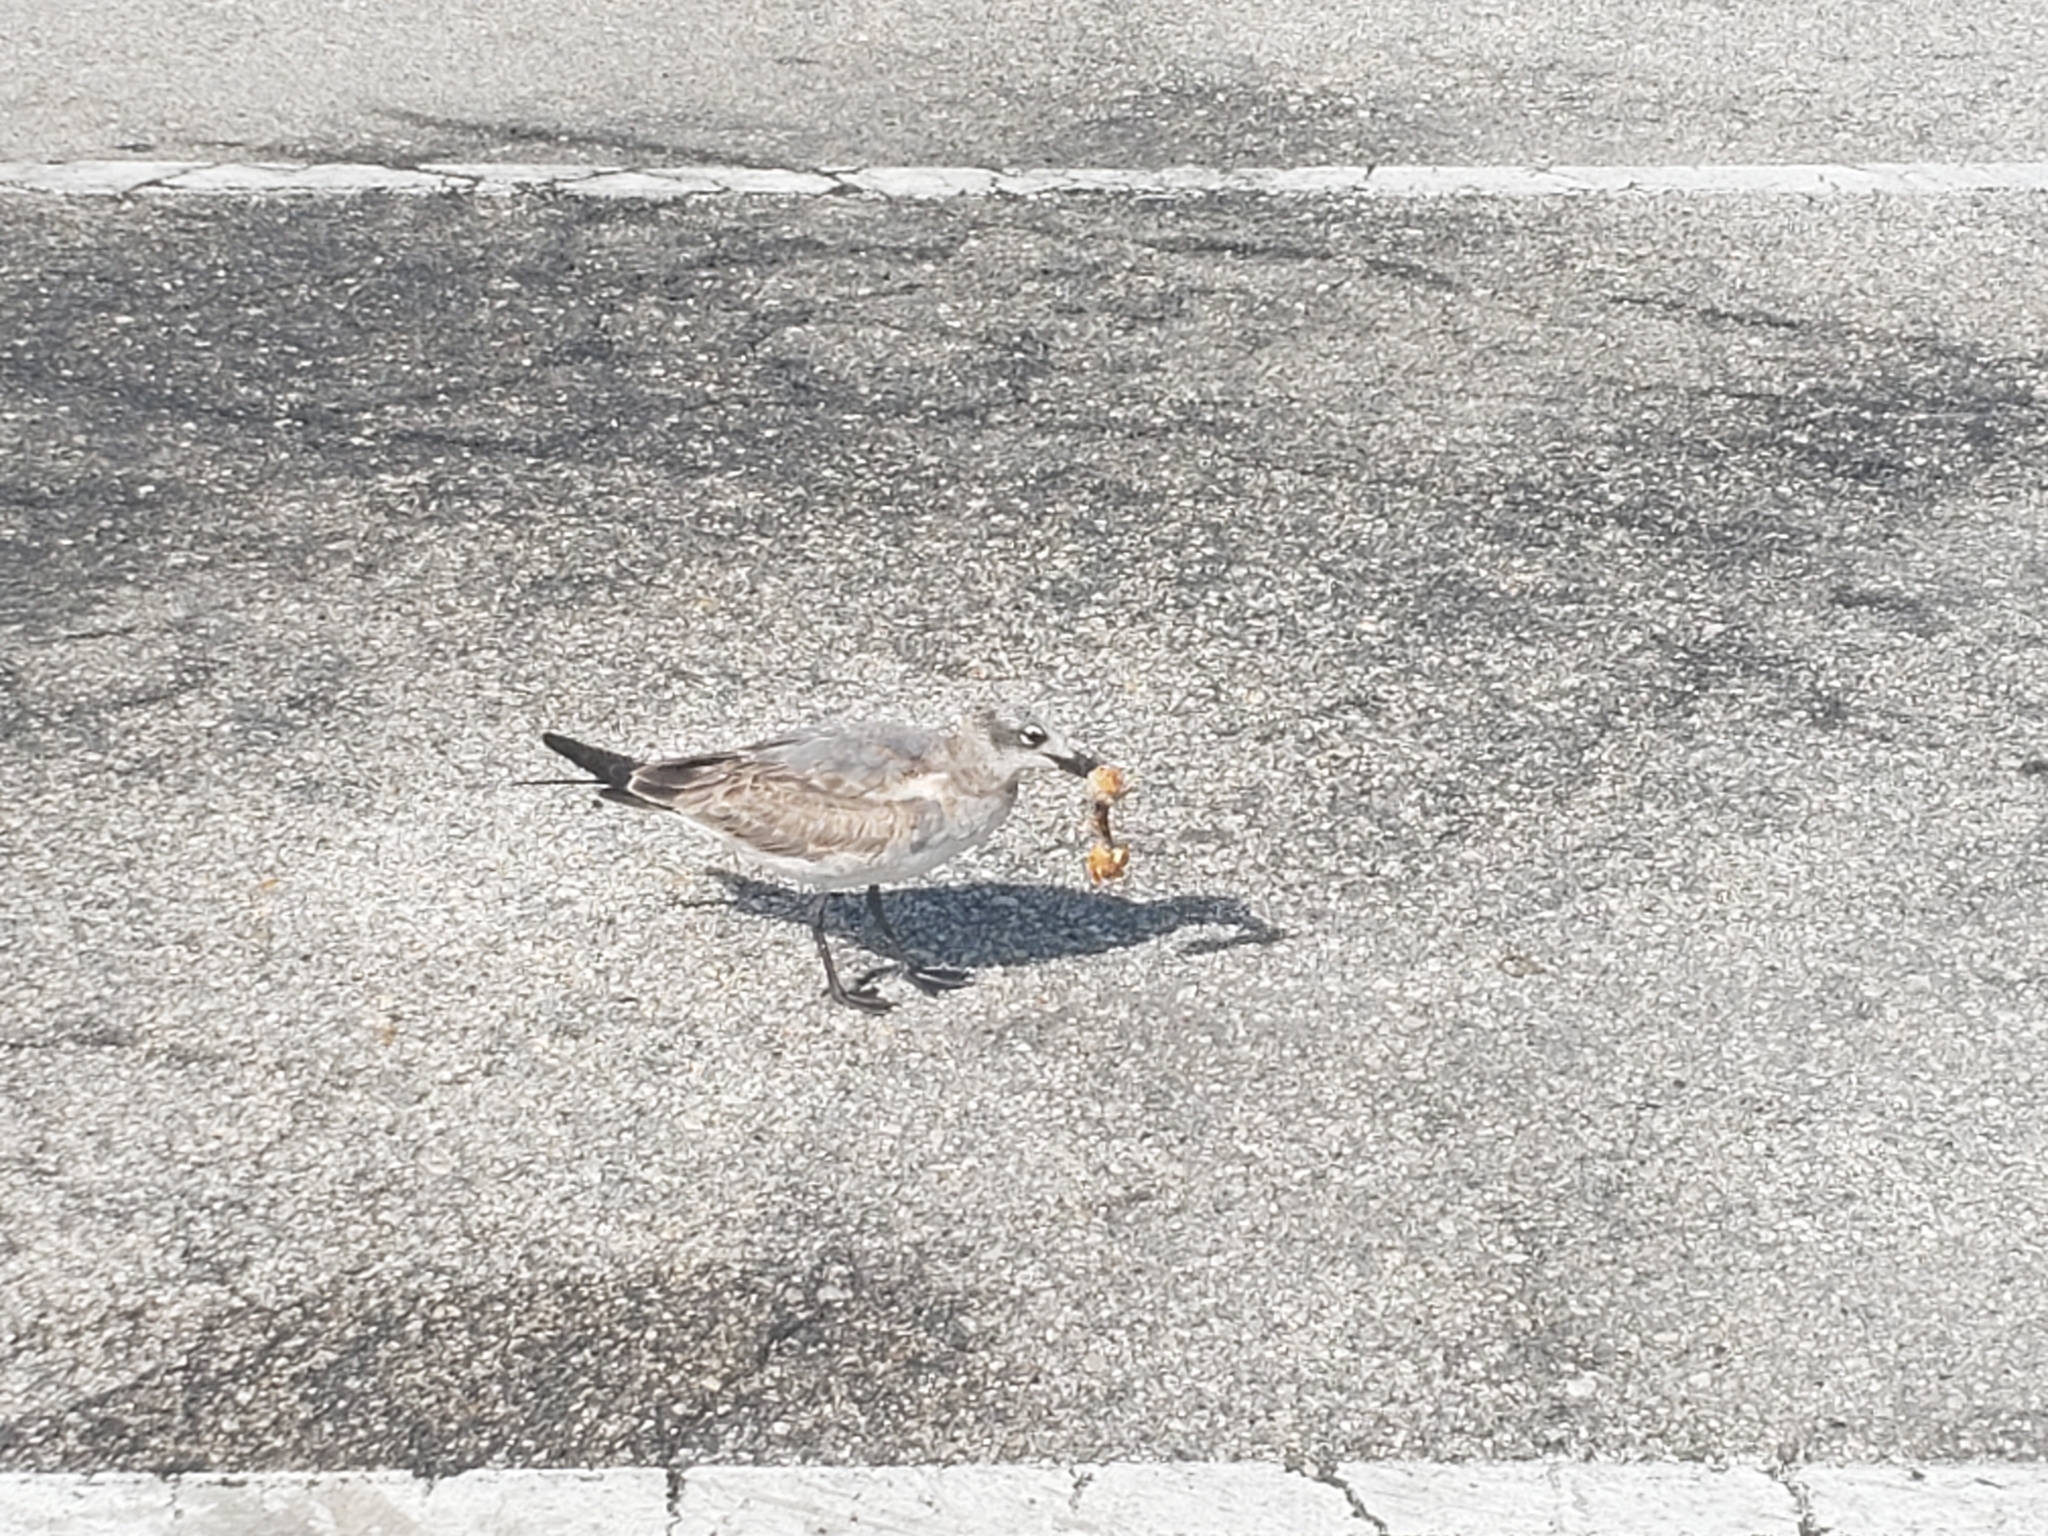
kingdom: Animalia
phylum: Chordata
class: Aves
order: Charadriiformes
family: Laridae
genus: Leucophaeus
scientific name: Leucophaeus atricilla
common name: Laughing gull
